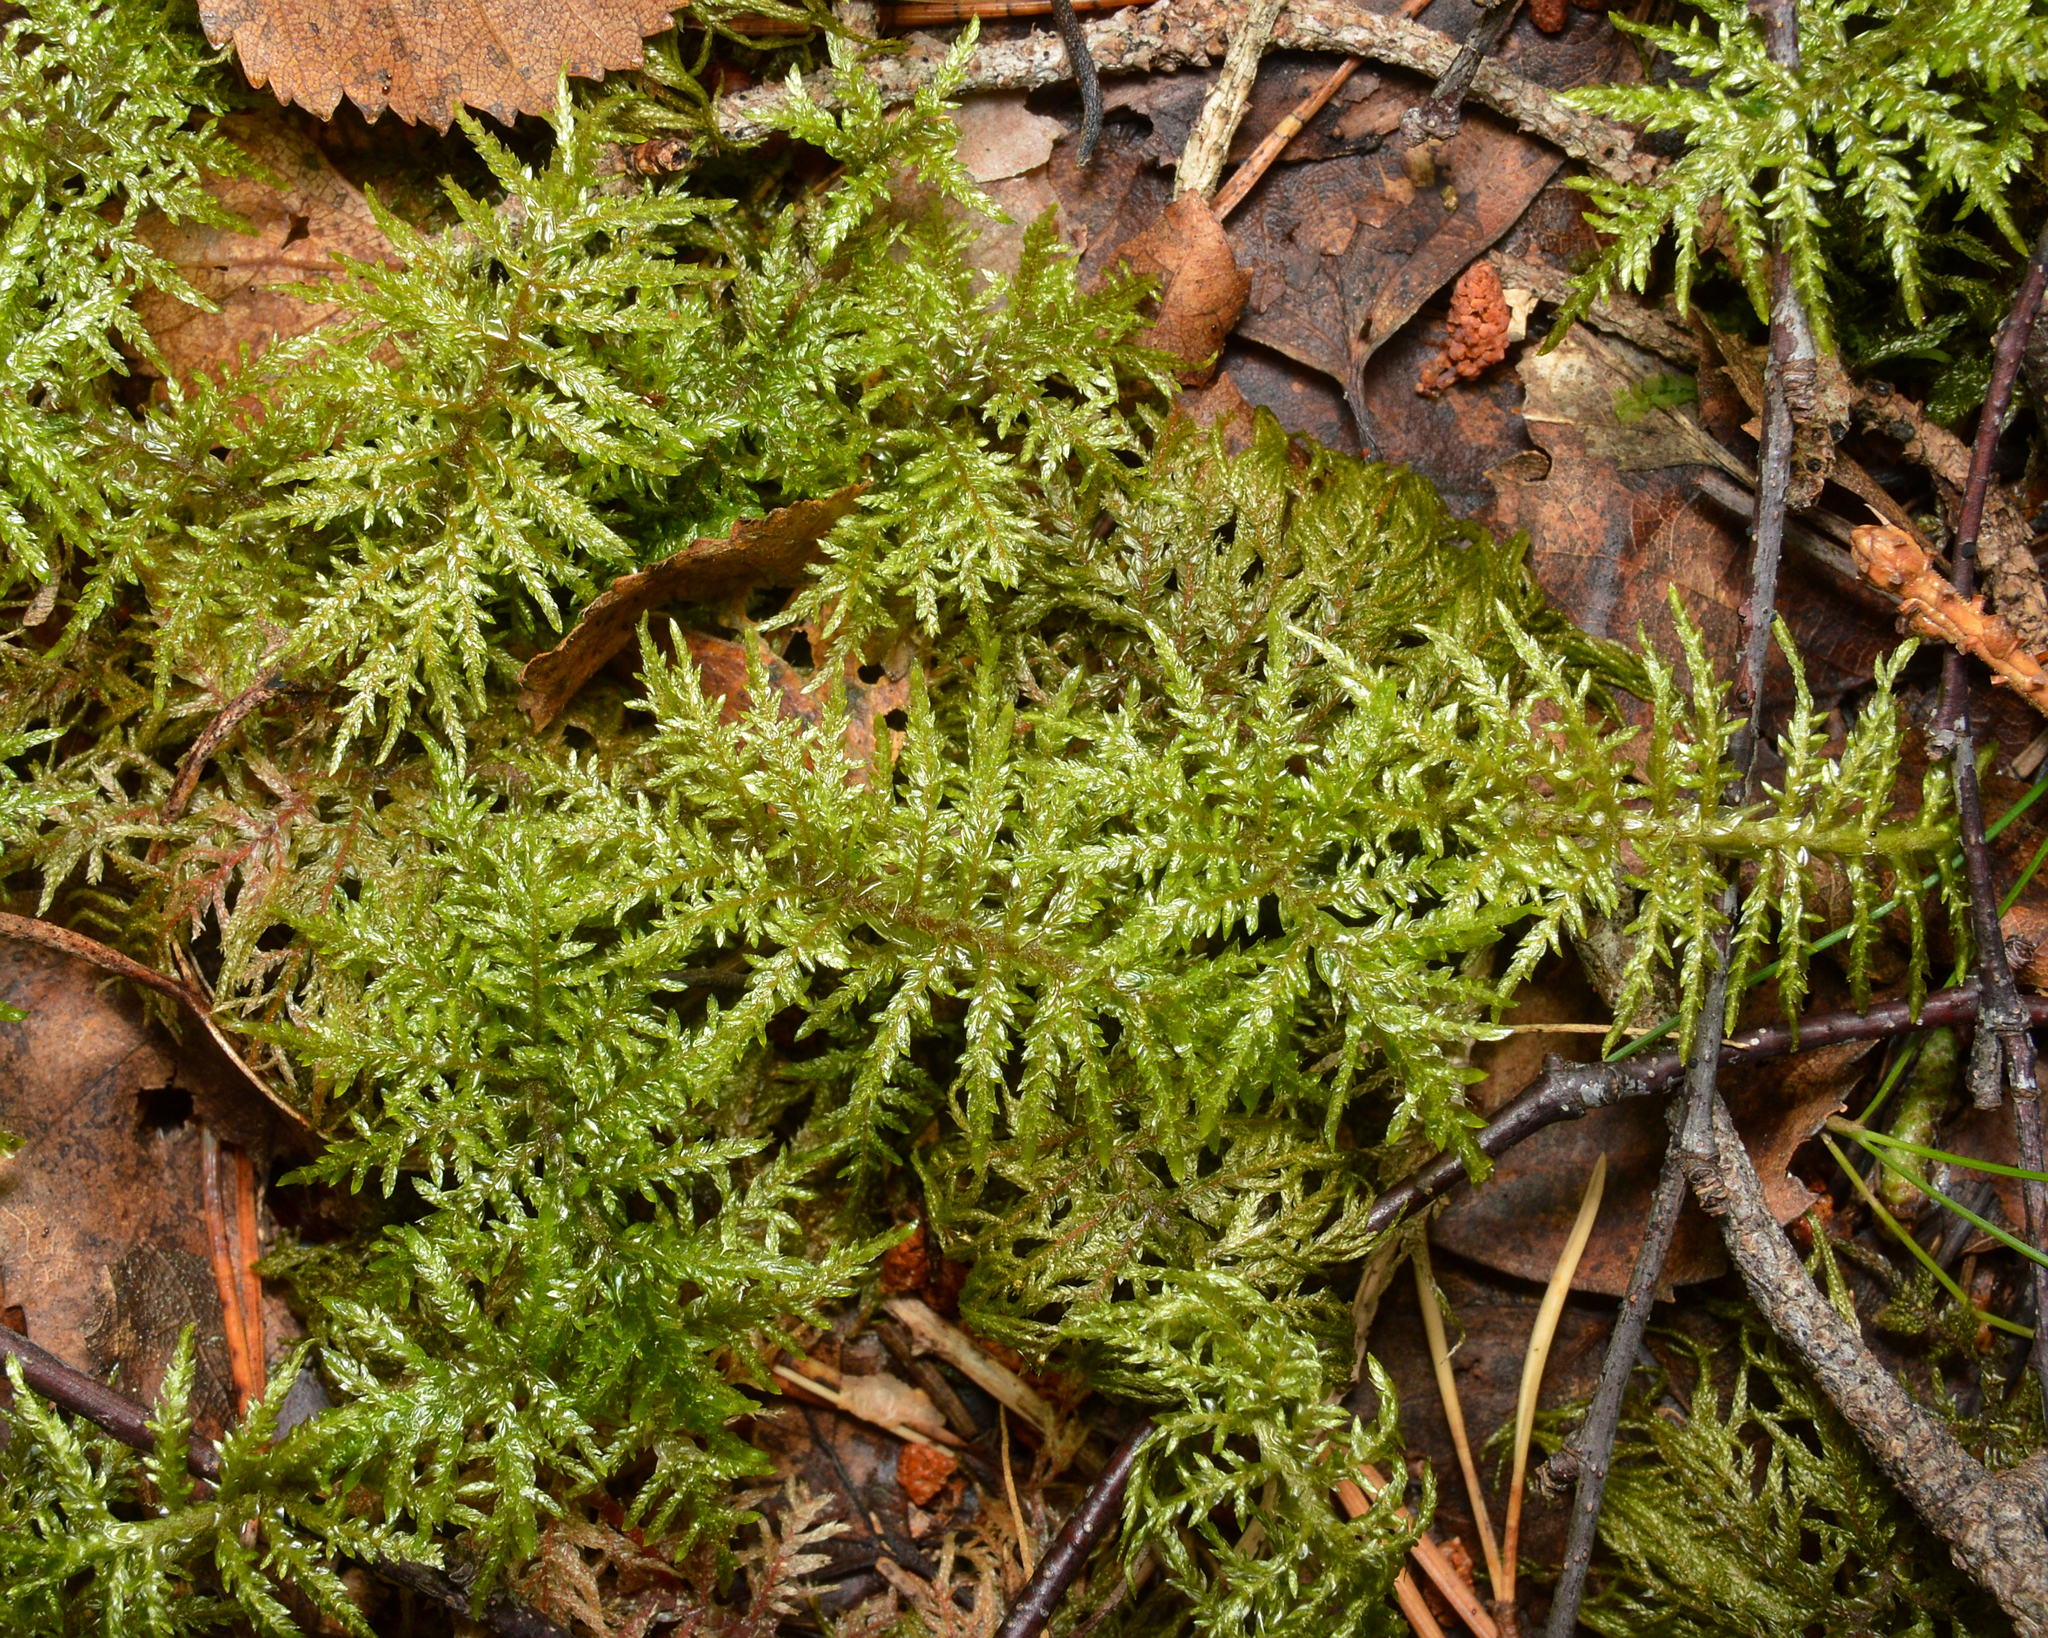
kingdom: Plantae
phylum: Bryophyta
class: Bryopsida
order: Hypnales
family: Hylocomiaceae
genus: Hylocomium
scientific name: Hylocomium splendens
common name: Stairstep moss
